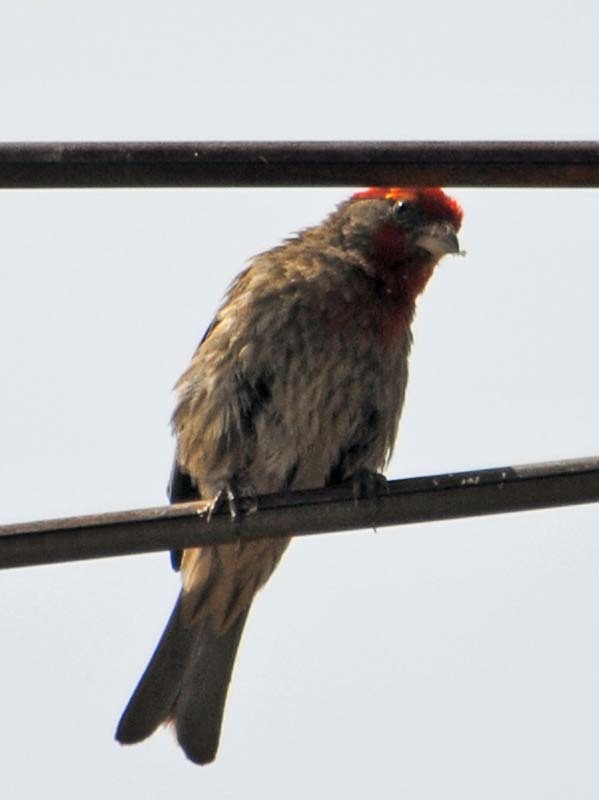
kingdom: Animalia
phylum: Chordata
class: Aves
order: Passeriformes
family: Fringillidae
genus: Haemorhous
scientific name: Haemorhous mexicanus
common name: House finch
